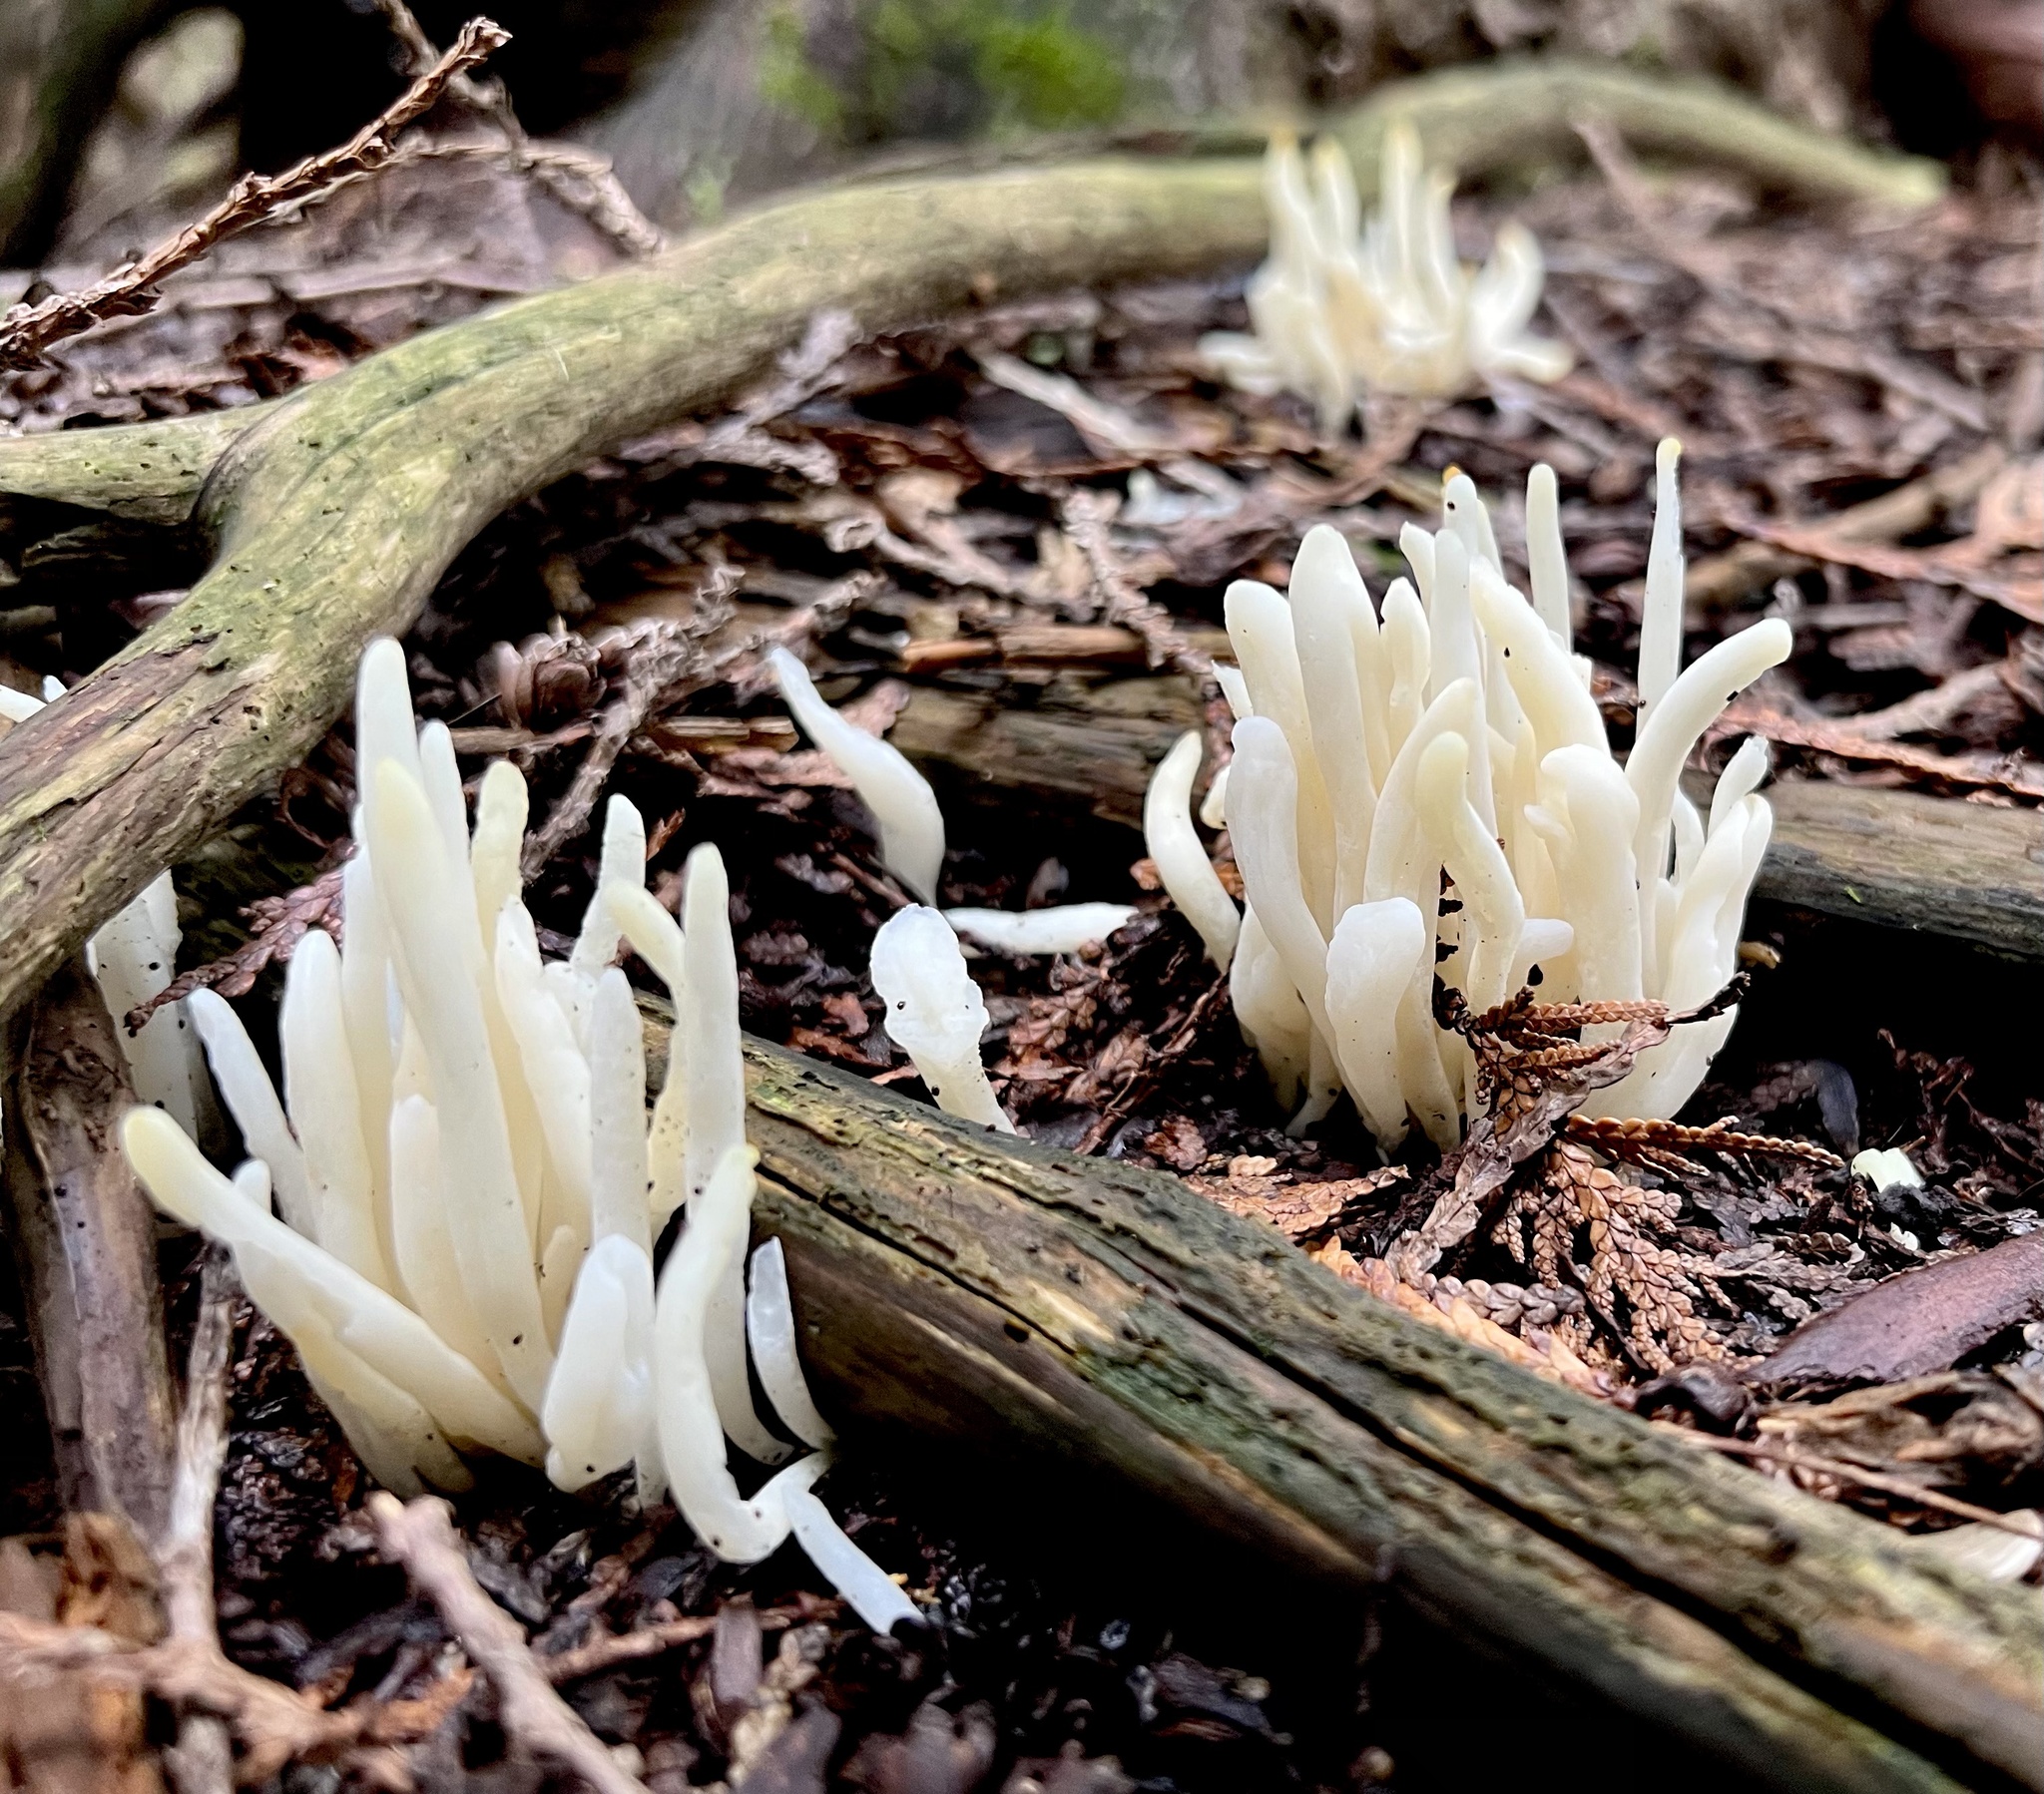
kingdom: Fungi
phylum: Basidiomycota
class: Agaricomycetes
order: Agaricales
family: Clavariaceae
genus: Clavaria
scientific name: Clavaria fragilis
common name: White spindles
